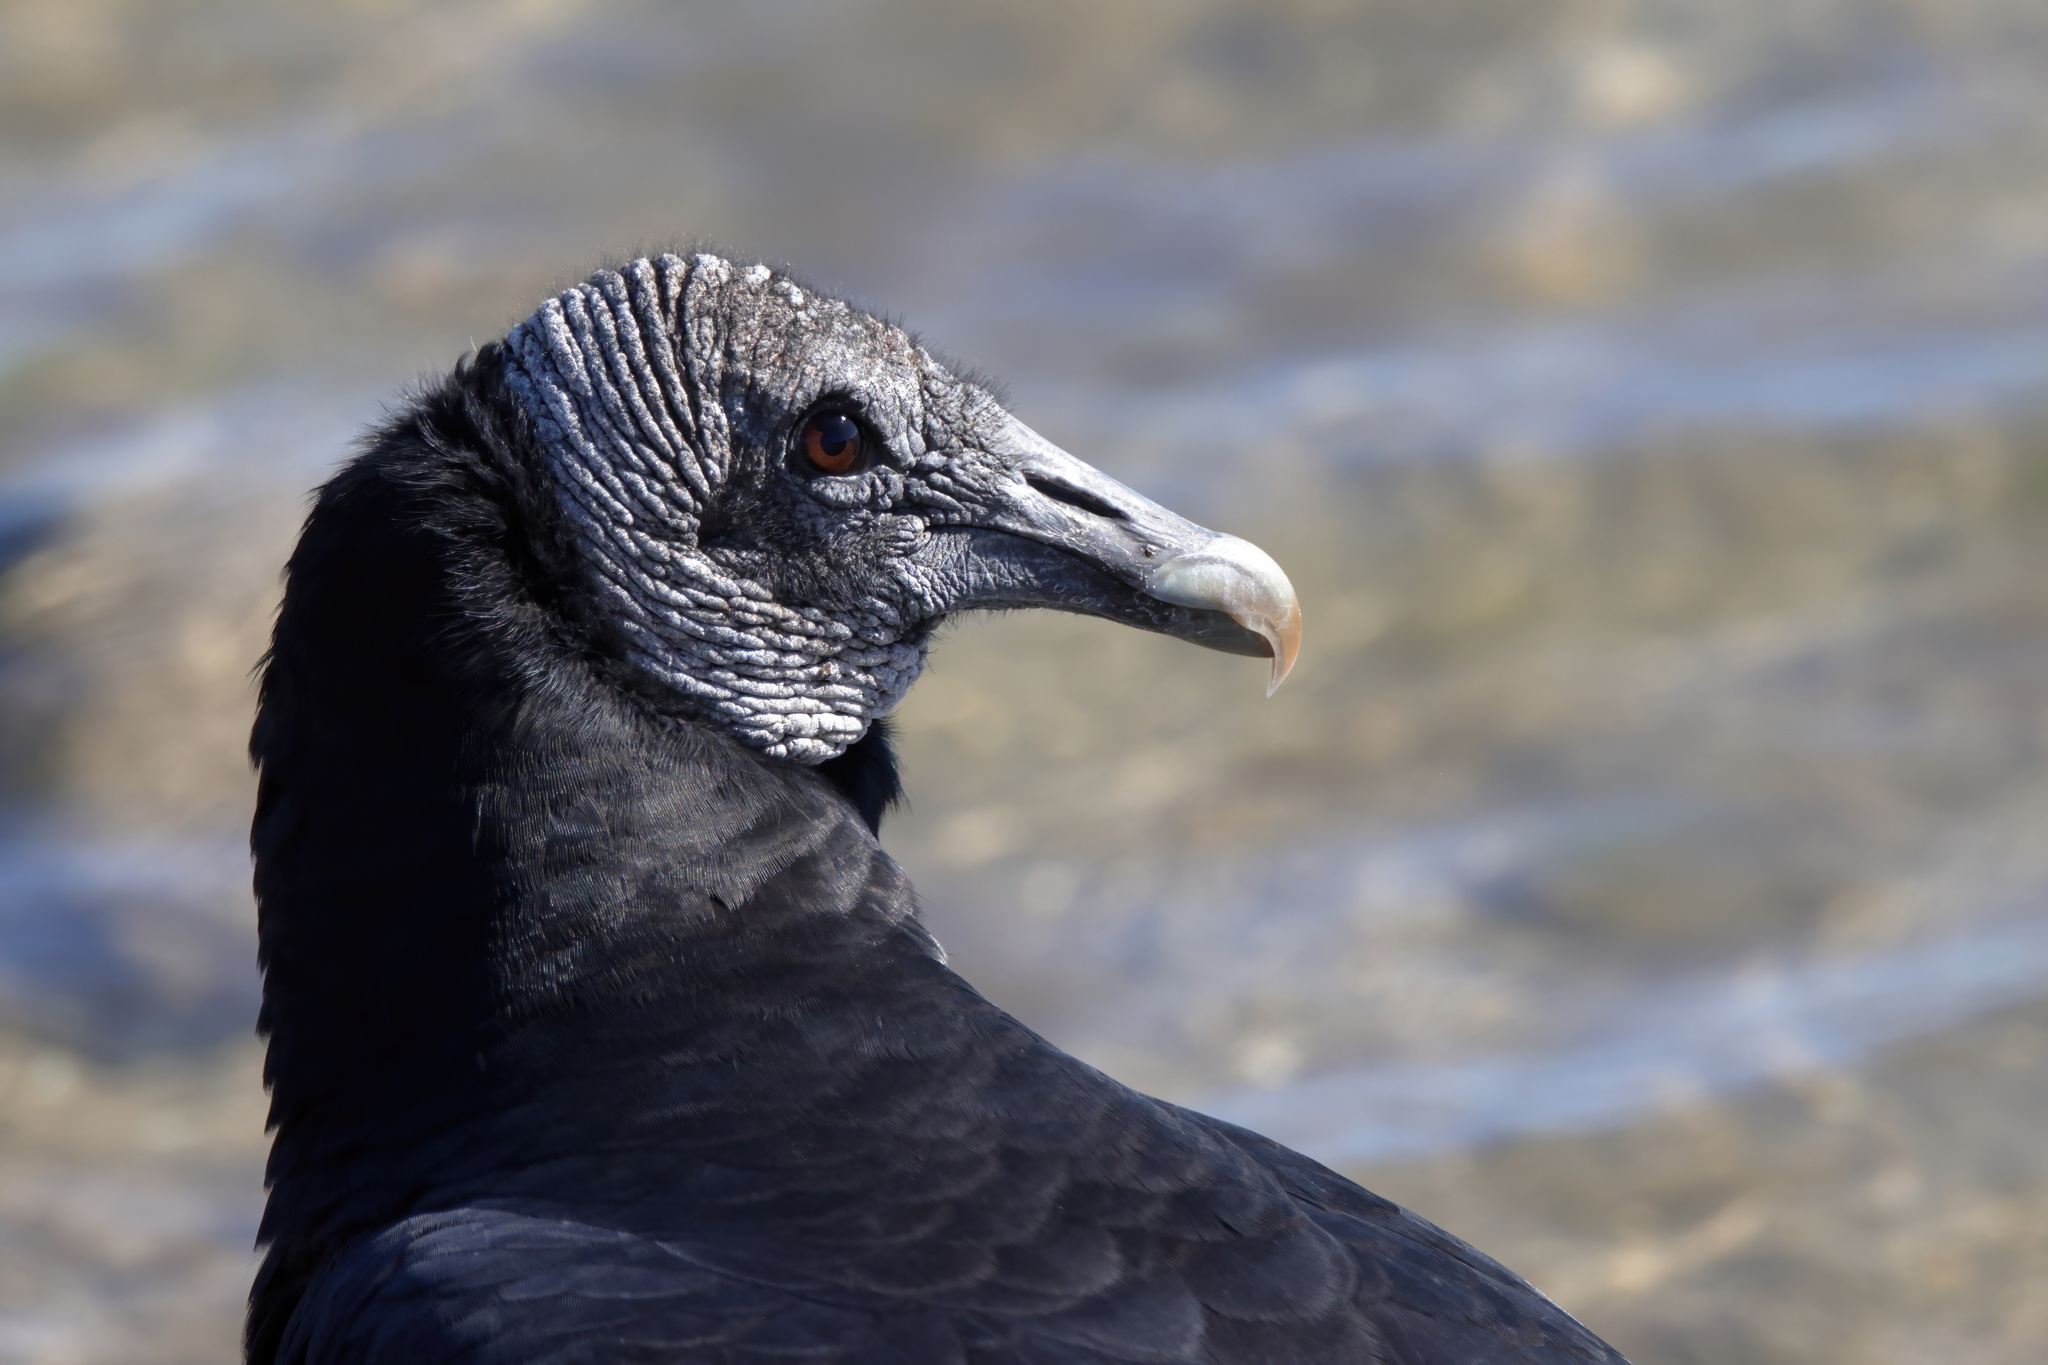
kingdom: Animalia
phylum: Chordata
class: Aves
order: Accipitriformes
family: Cathartidae
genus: Coragyps
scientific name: Coragyps atratus
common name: Black vulture
